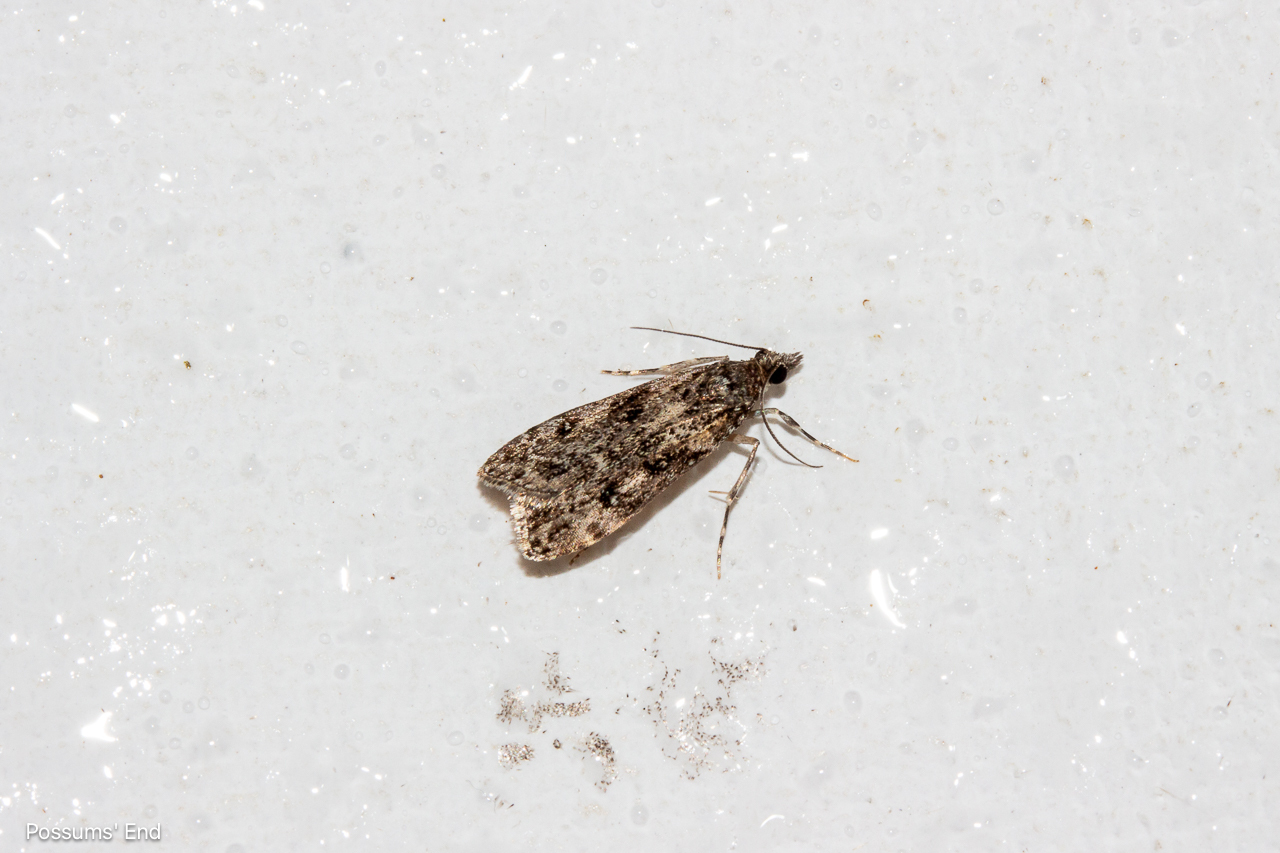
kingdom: Animalia
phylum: Arthropoda
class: Insecta
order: Lepidoptera
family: Crambidae
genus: Eudonia
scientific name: Eudonia philerga
